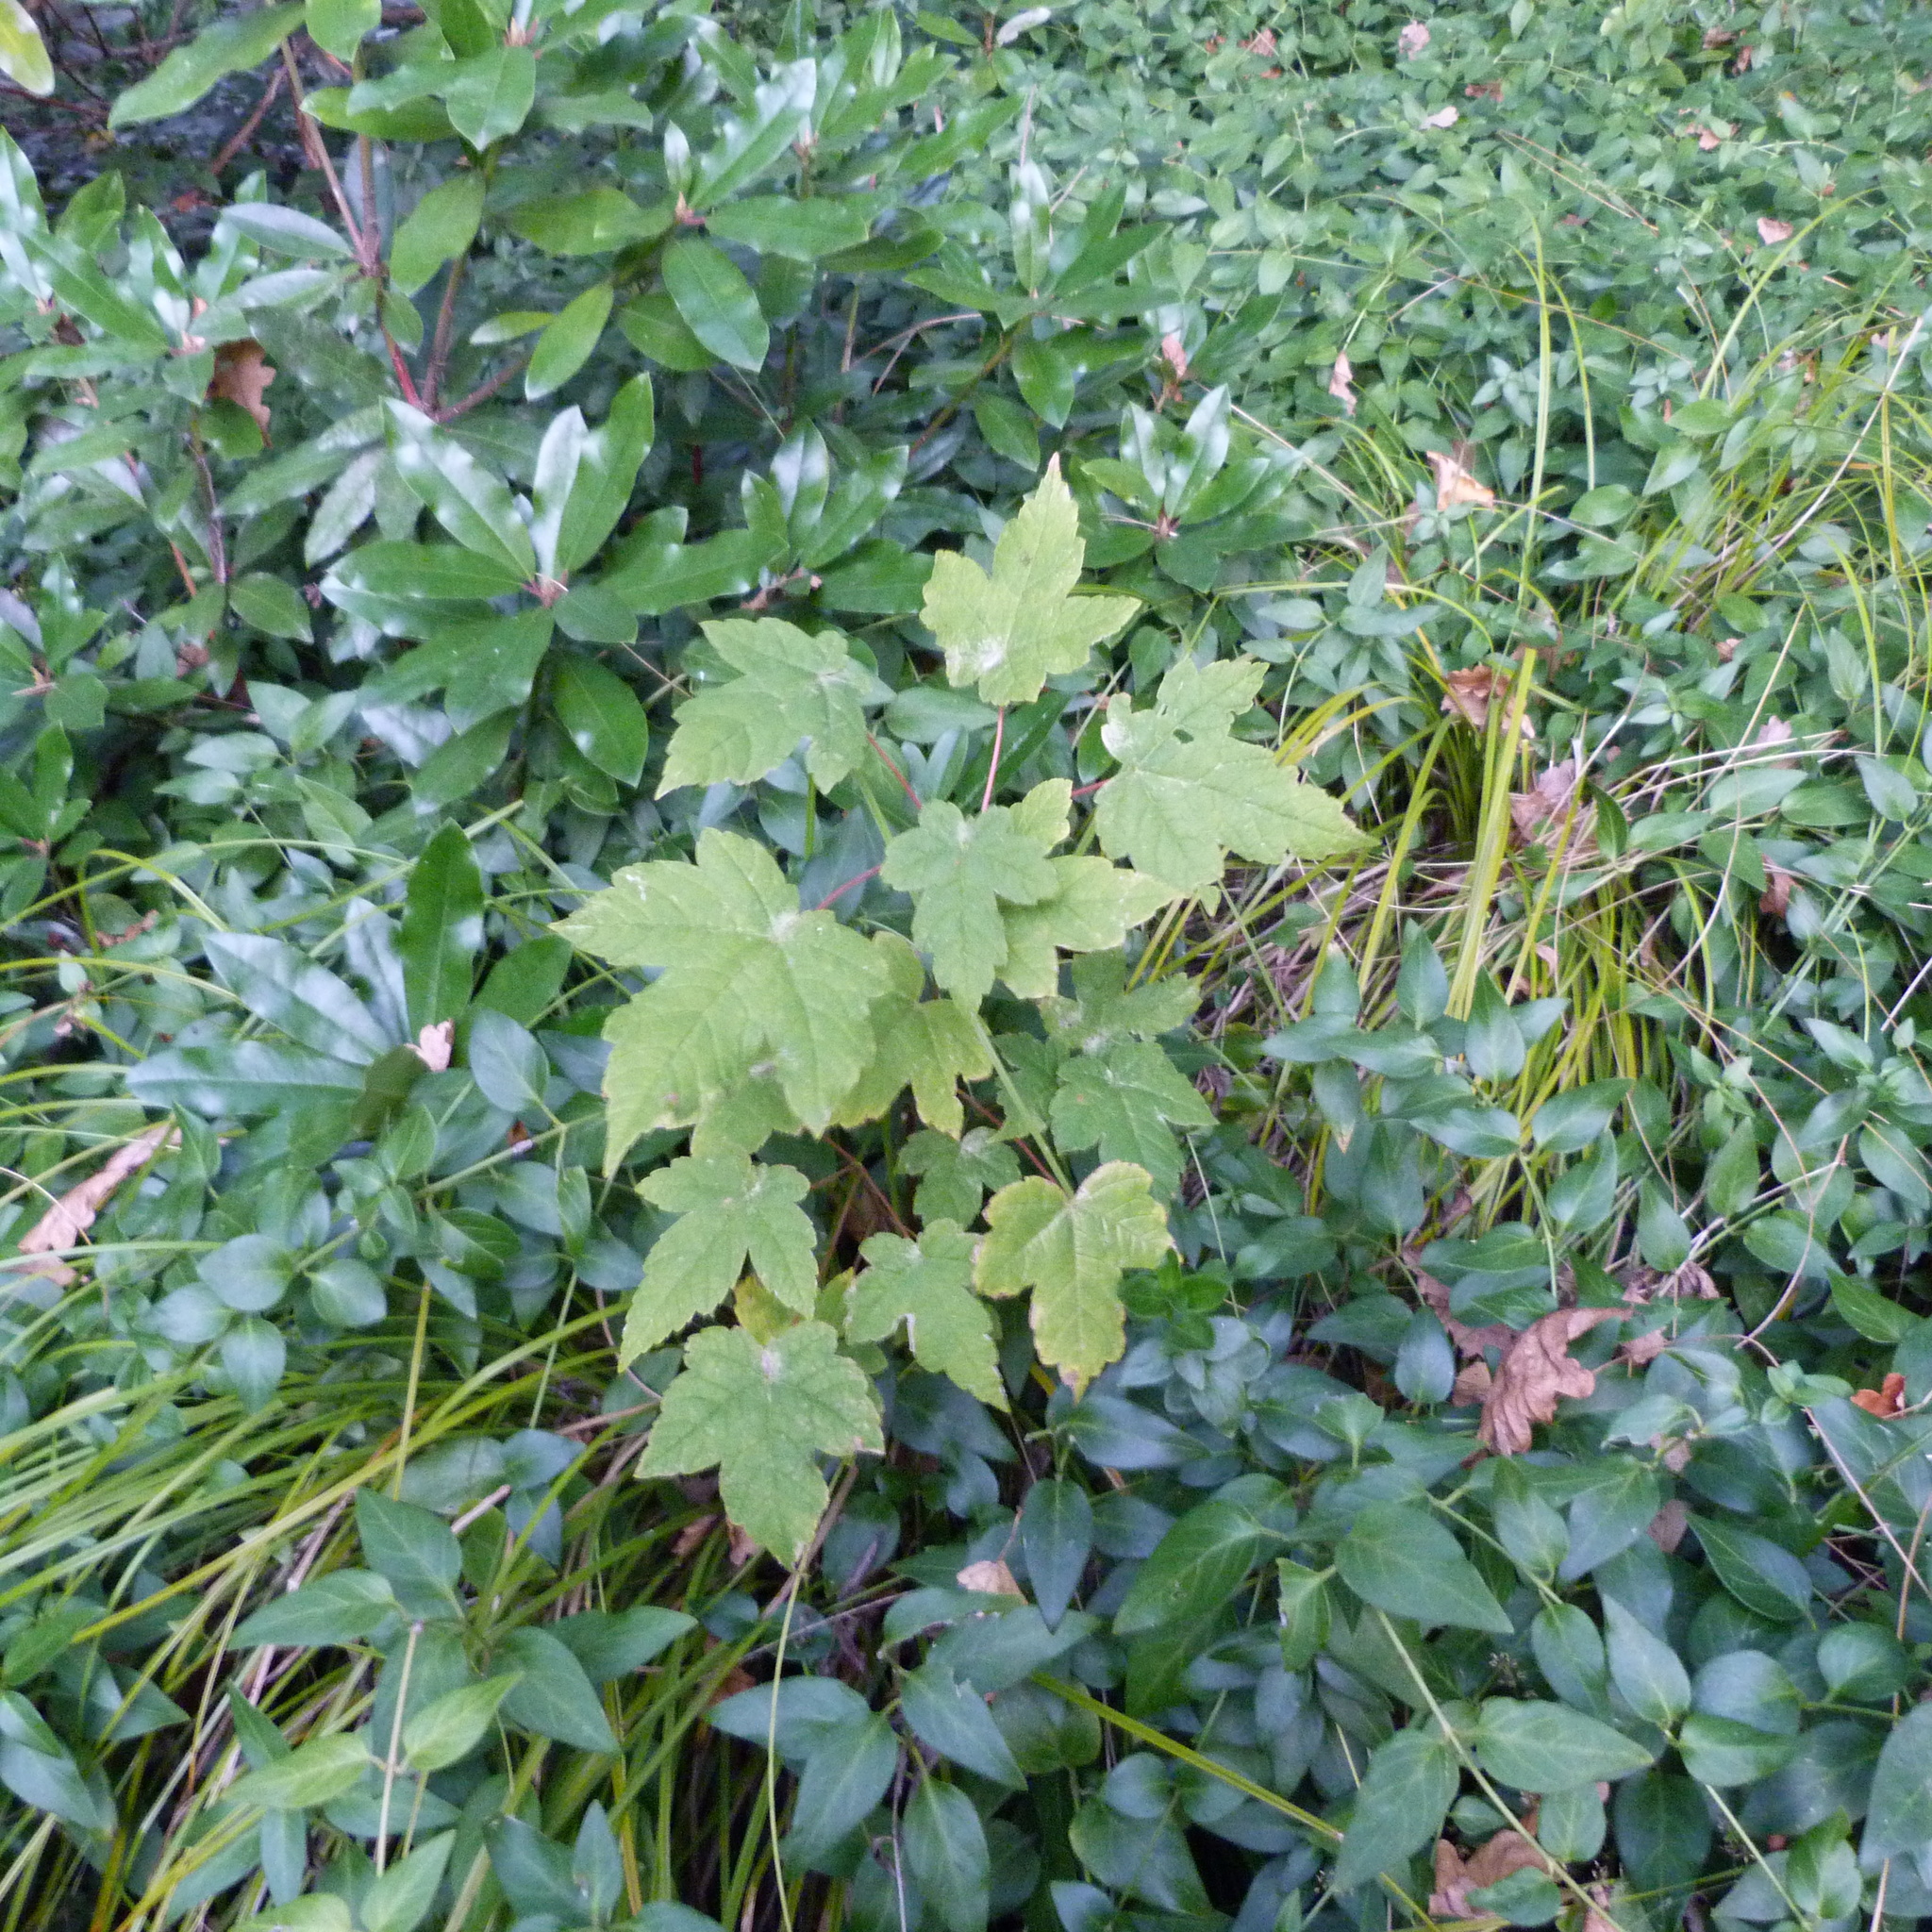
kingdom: Plantae
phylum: Tracheophyta
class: Magnoliopsida
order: Sapindales
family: Sapindaceae
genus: Acer
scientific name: Acer pseudoplatanus
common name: Sycamore
